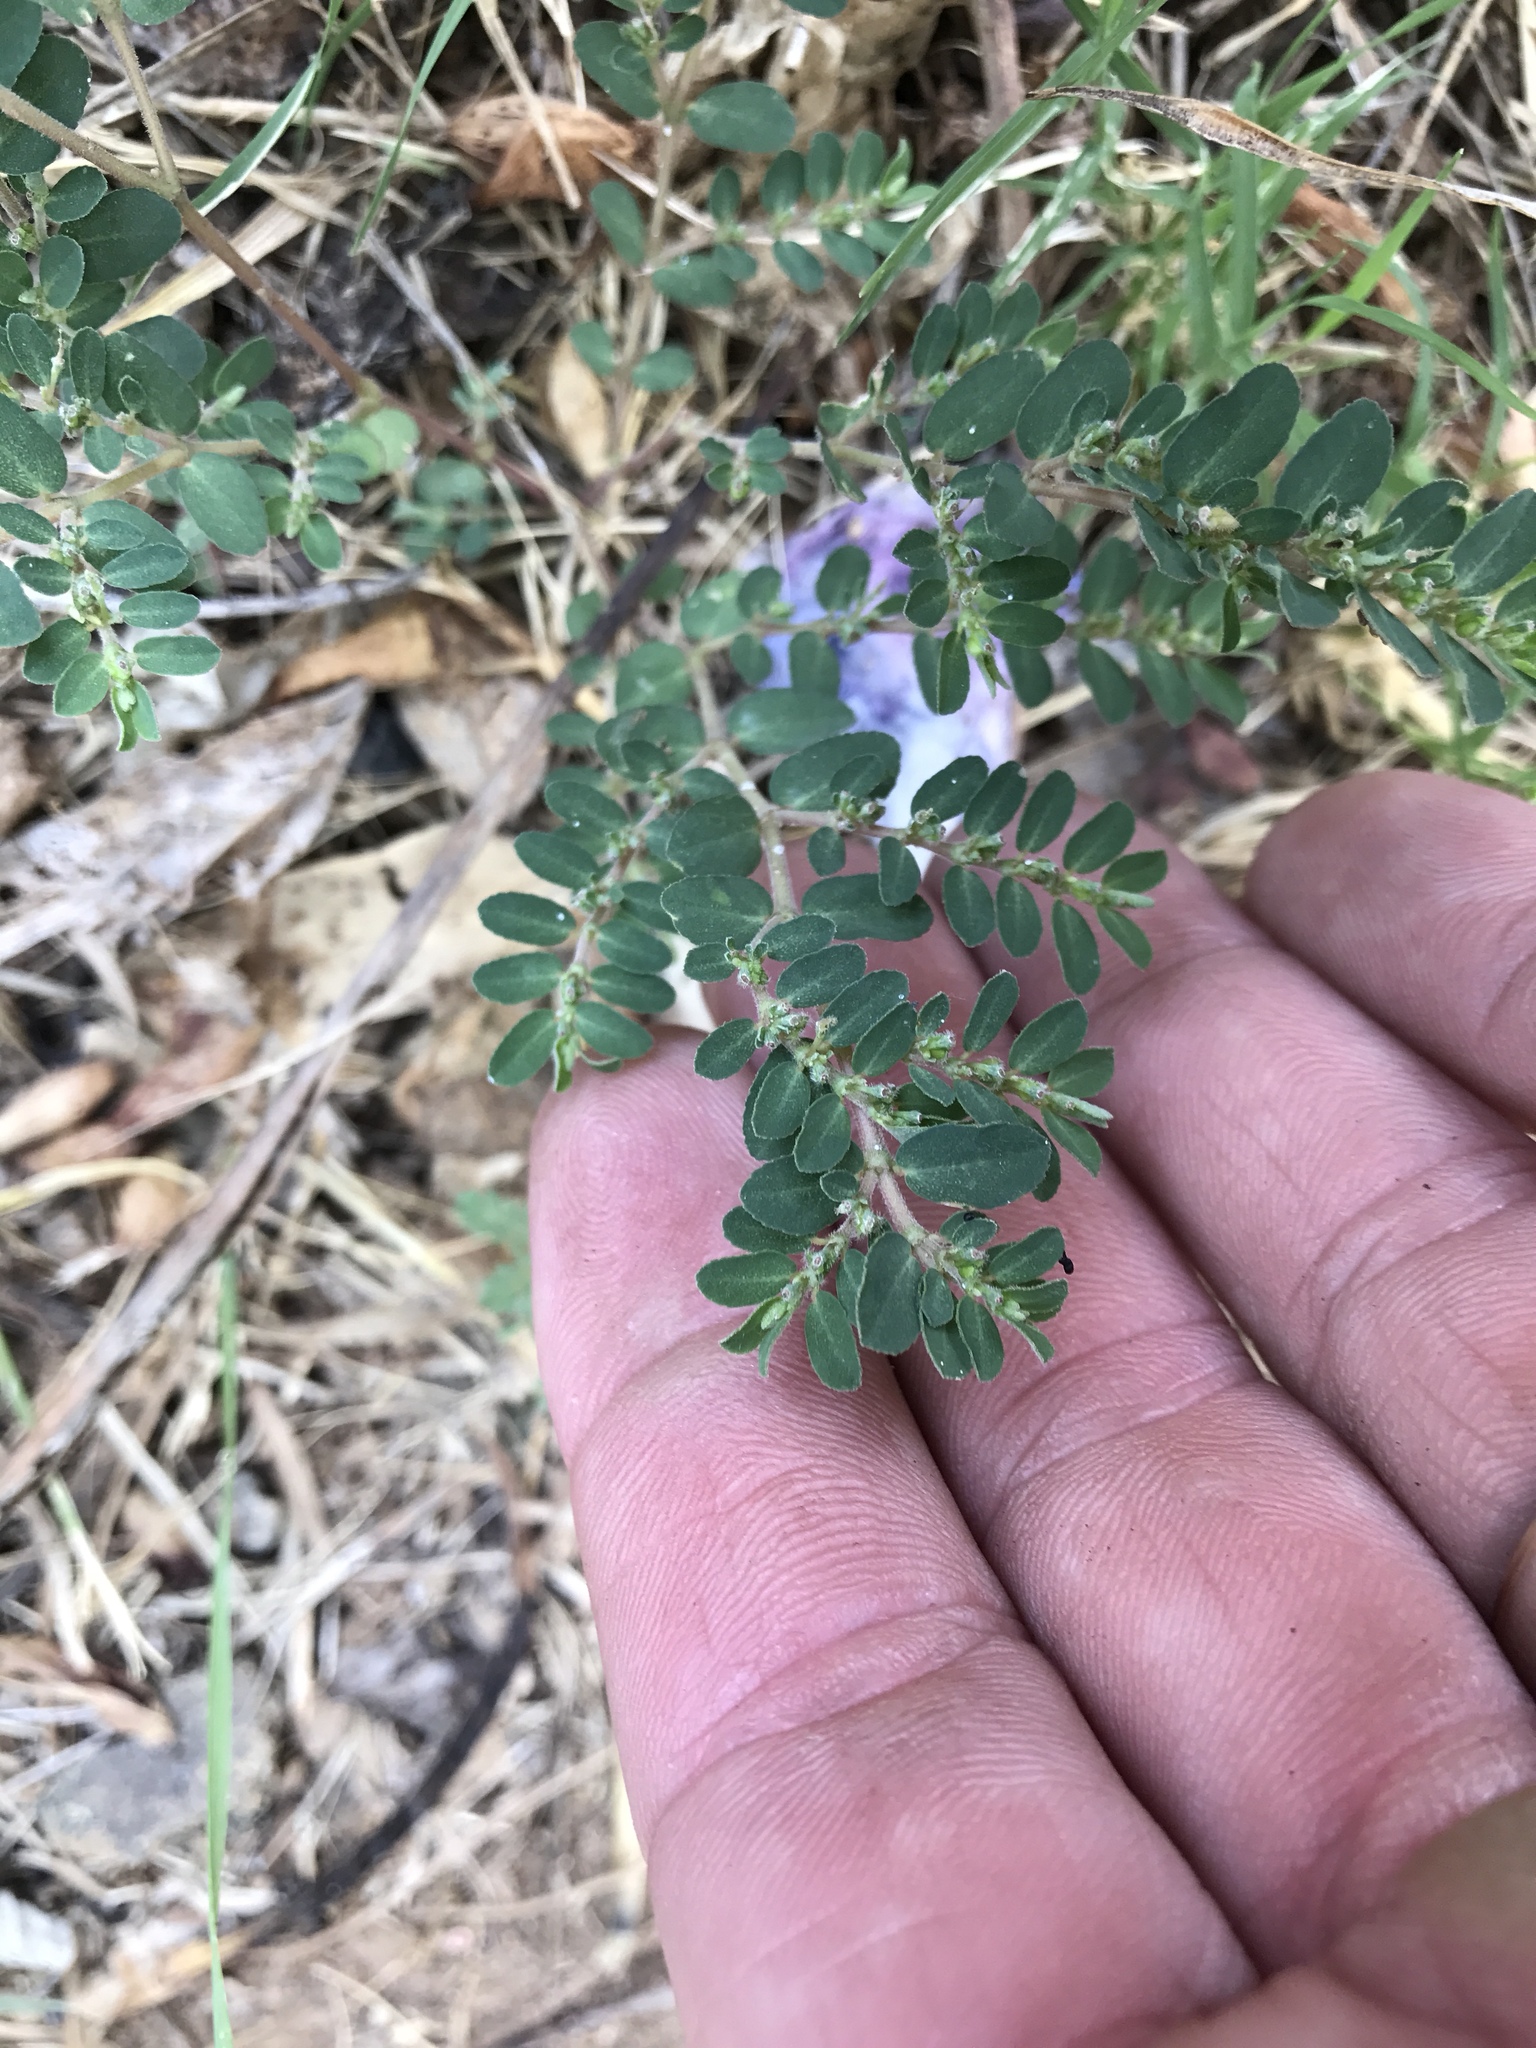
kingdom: Plantae
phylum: Tracheophyta
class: Magnoliopsida
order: Malpighiales
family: Euphorbiaceae
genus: Euphorbia
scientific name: Euphorbia prostrata
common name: Prostrate sandmat
